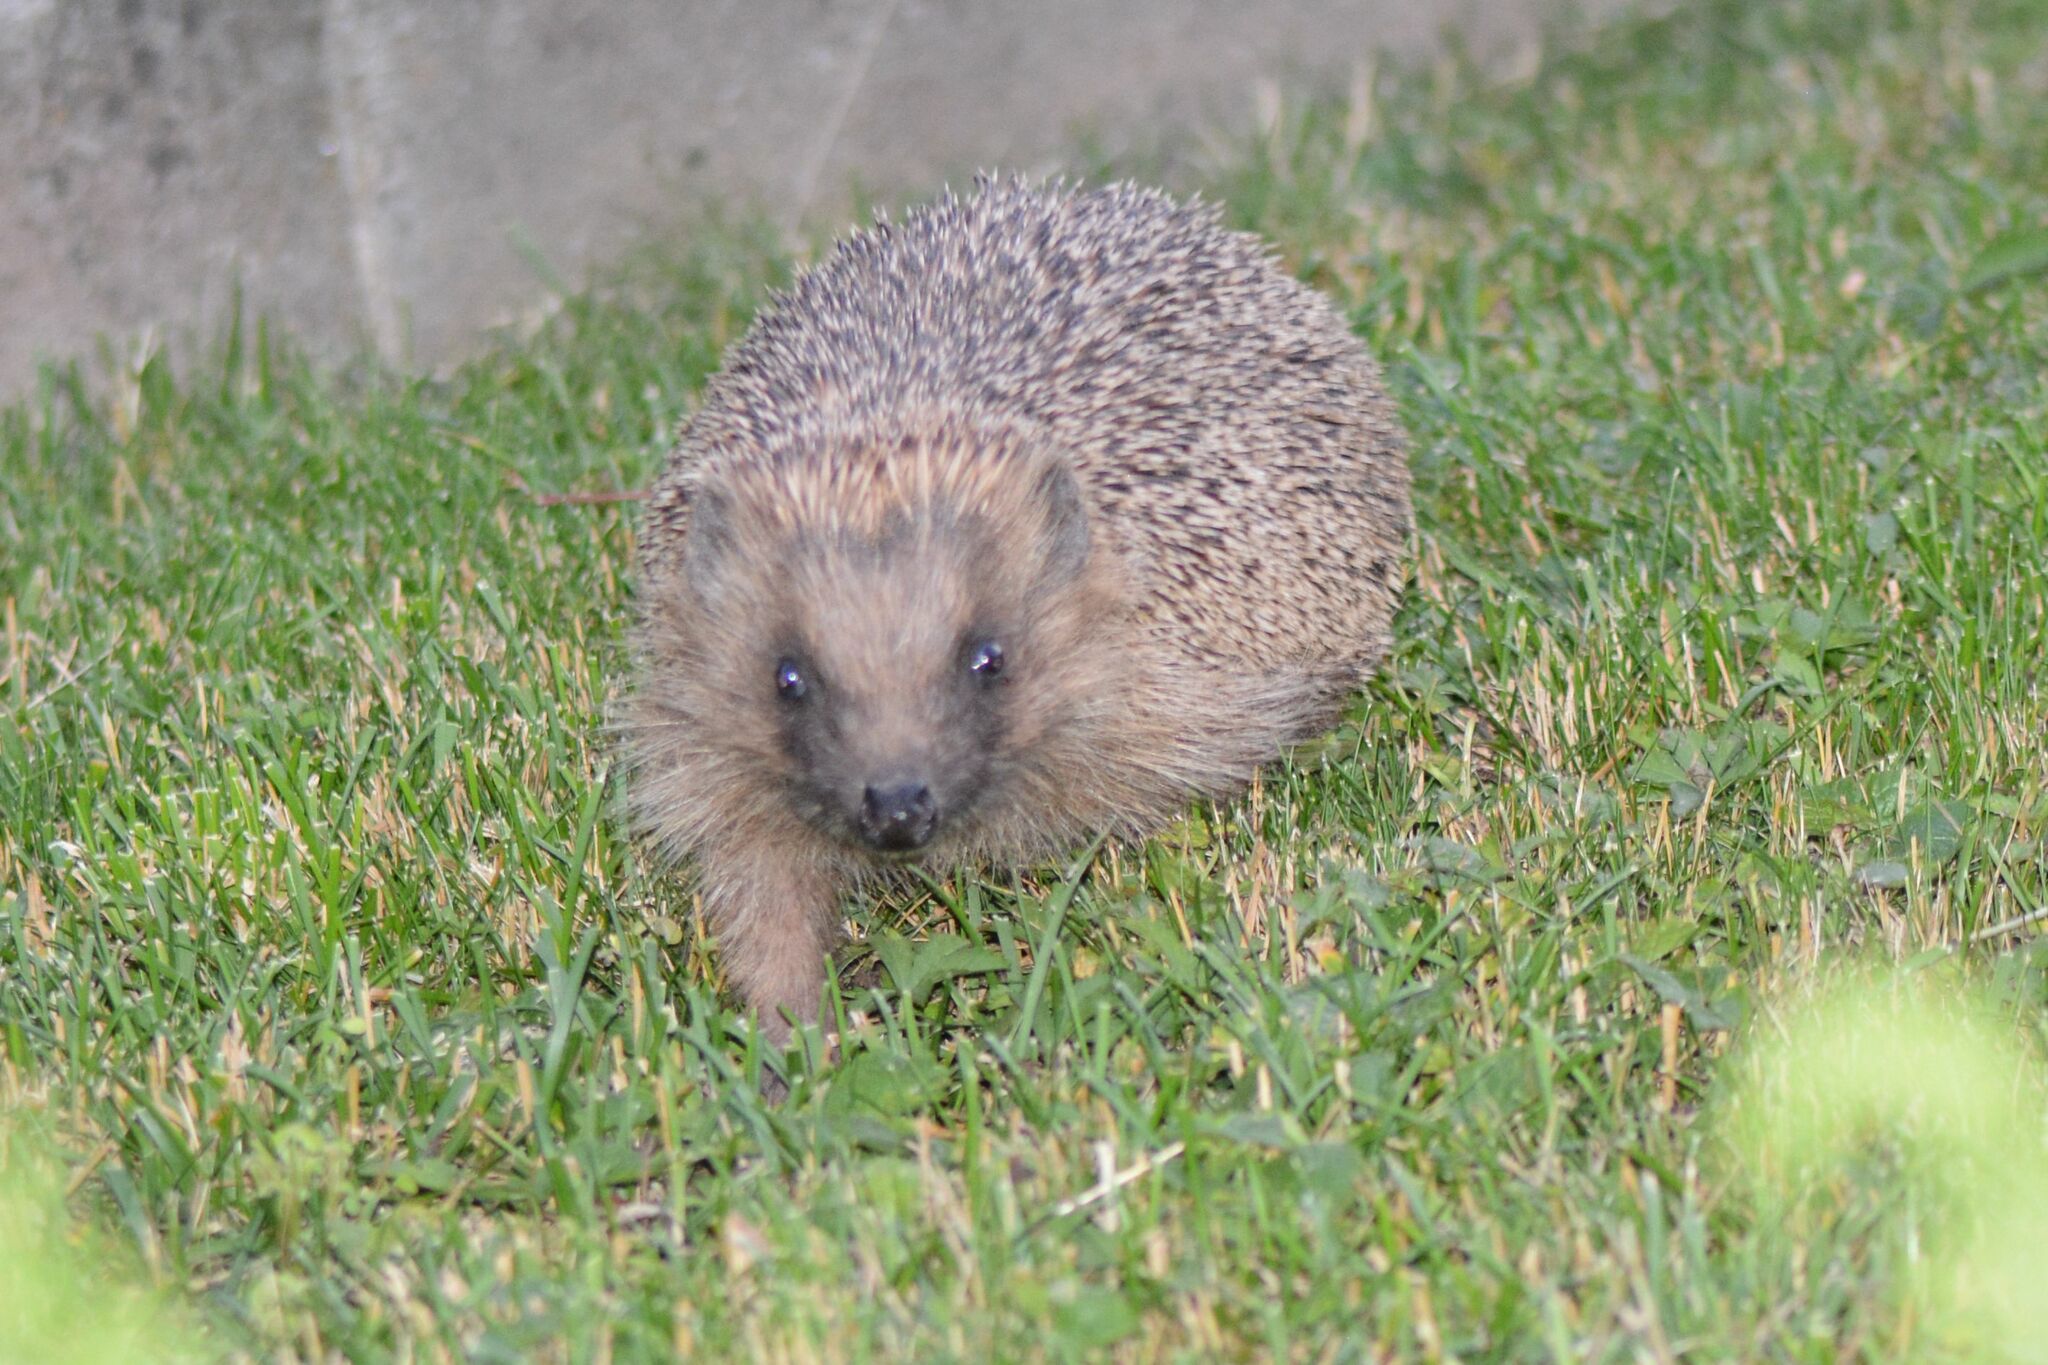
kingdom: Animalia
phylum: Chordata
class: Mammalia
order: Erinaceomorpha
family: Erinaceidae
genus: Erinaceus
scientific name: Erinaceus europaeus
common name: West european hedgehog
